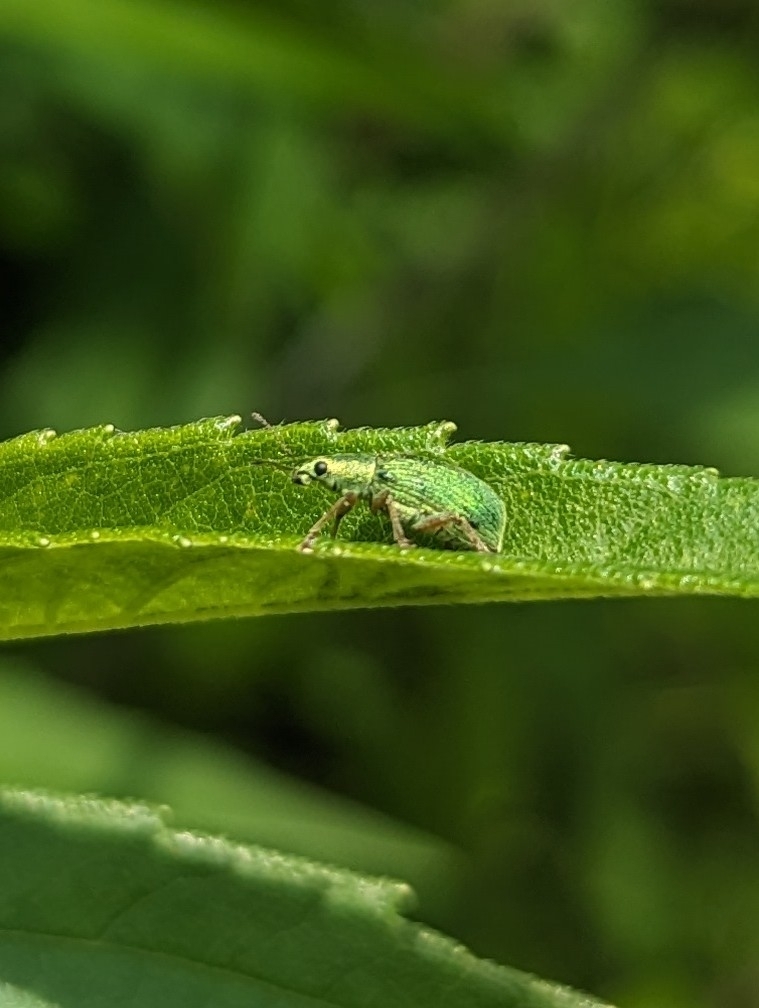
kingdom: Animalia
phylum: Arthropoda
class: Insecta
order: Coleoptera
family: Curculionidae
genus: Polydrusus
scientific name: Polydrusus formosus
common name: Weevil
